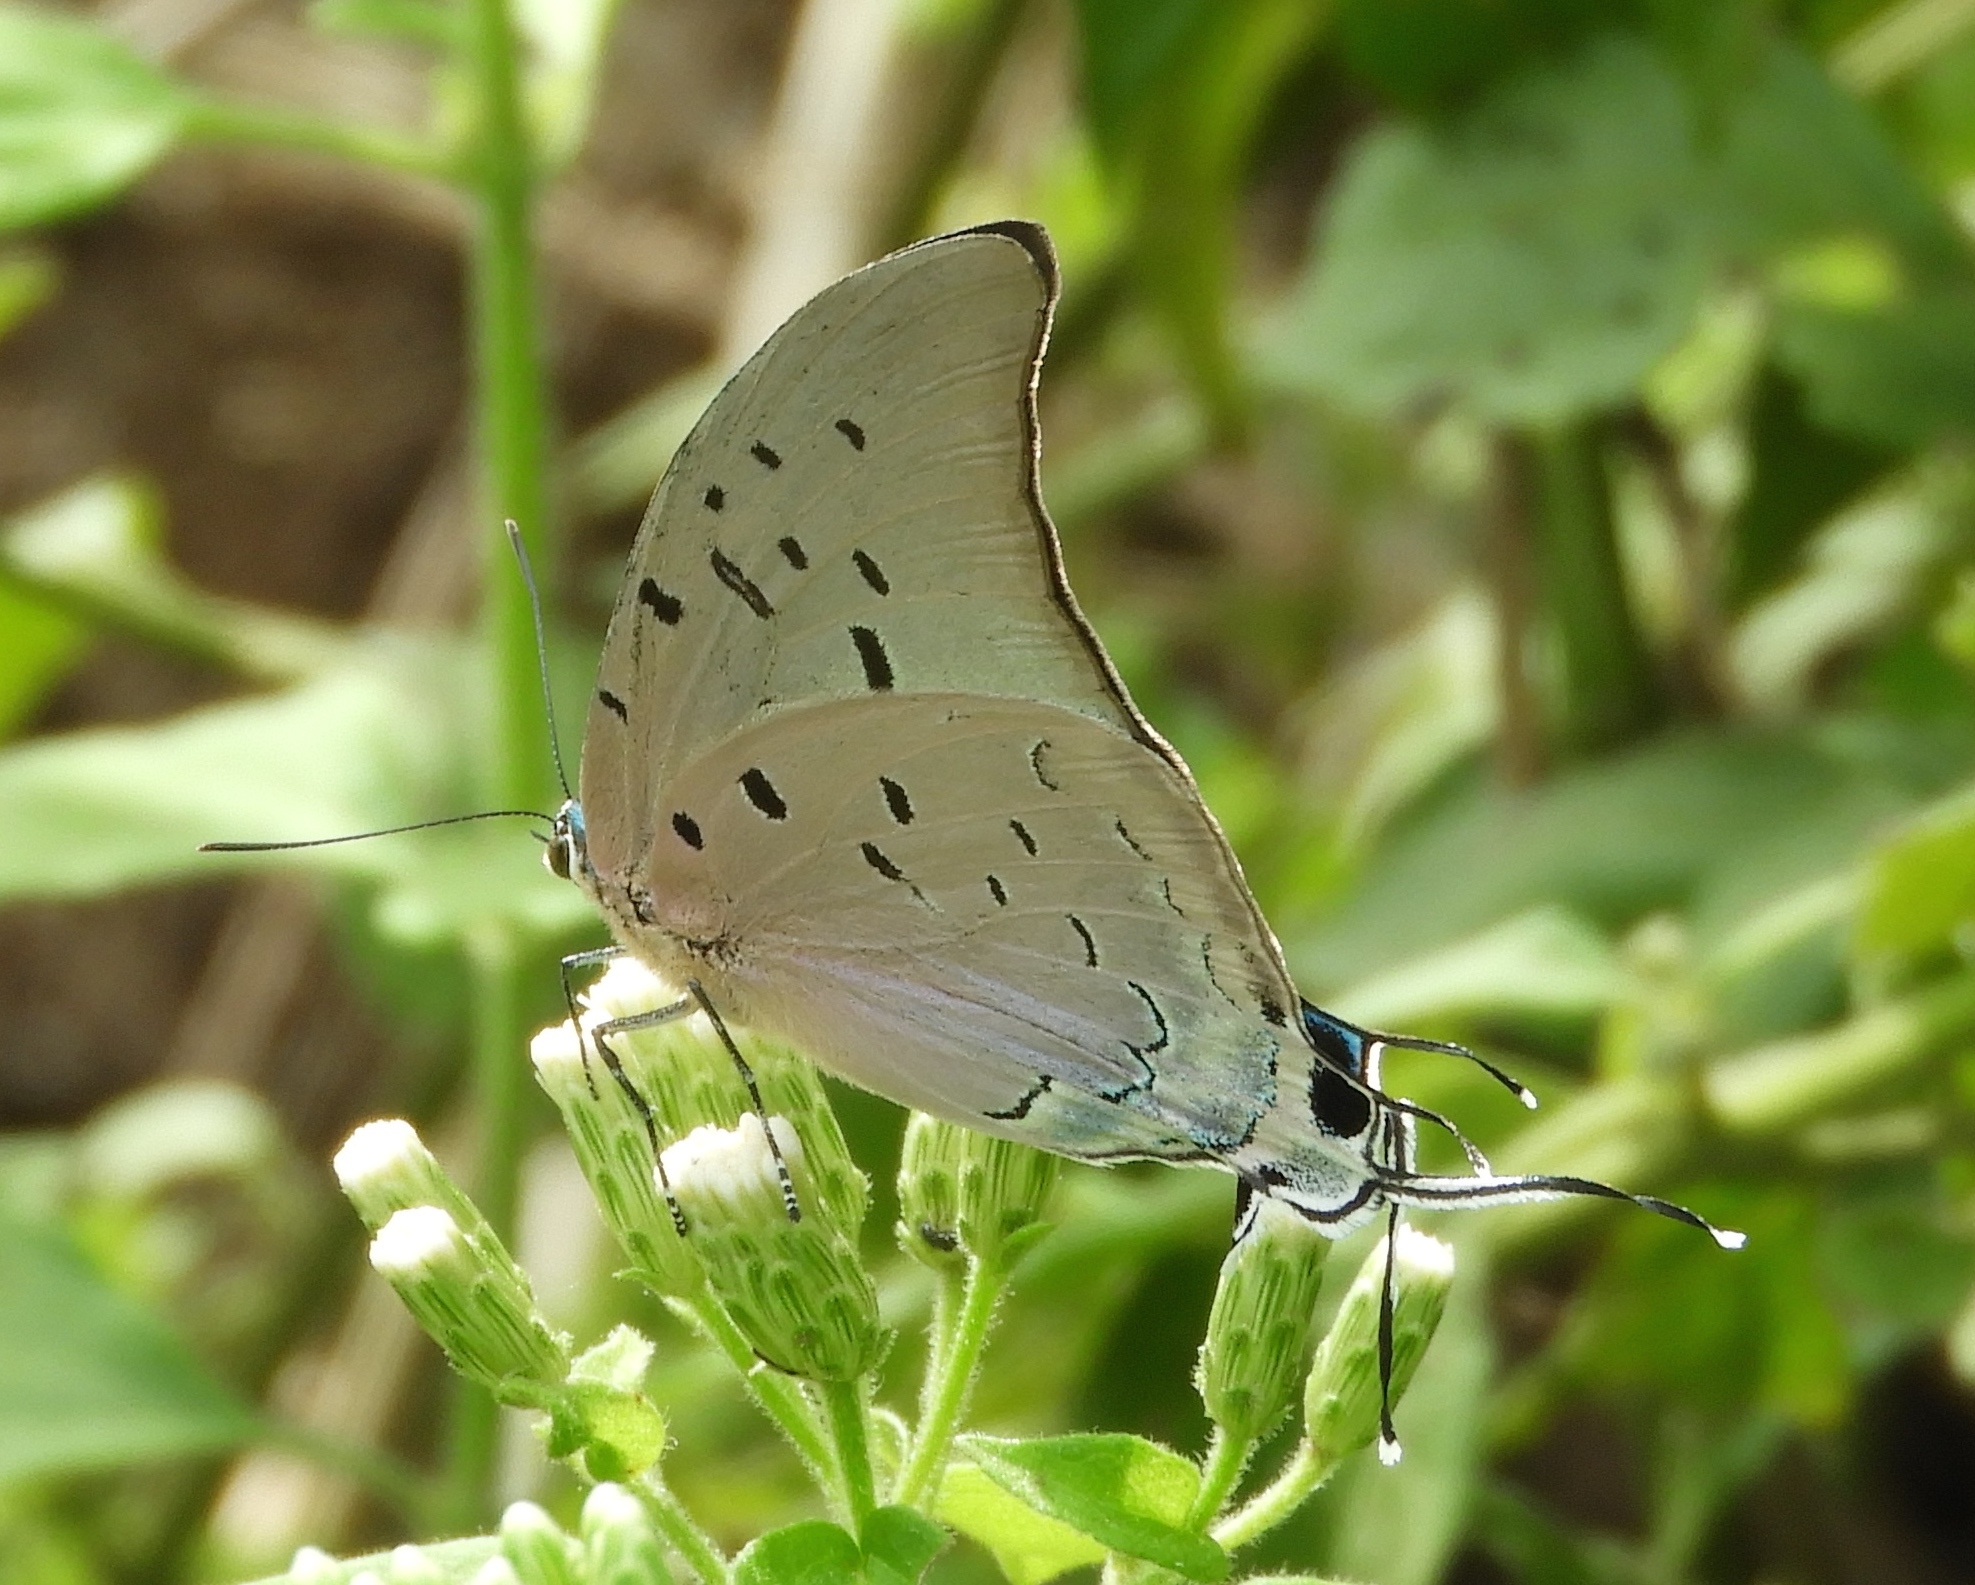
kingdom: Animalia
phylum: Arthropoda
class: Insecta
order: Lepidoptera
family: Lycaenidae
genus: Pseudolycaena
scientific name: Pseudolycaena damo
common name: Sky-blue hairstreak
